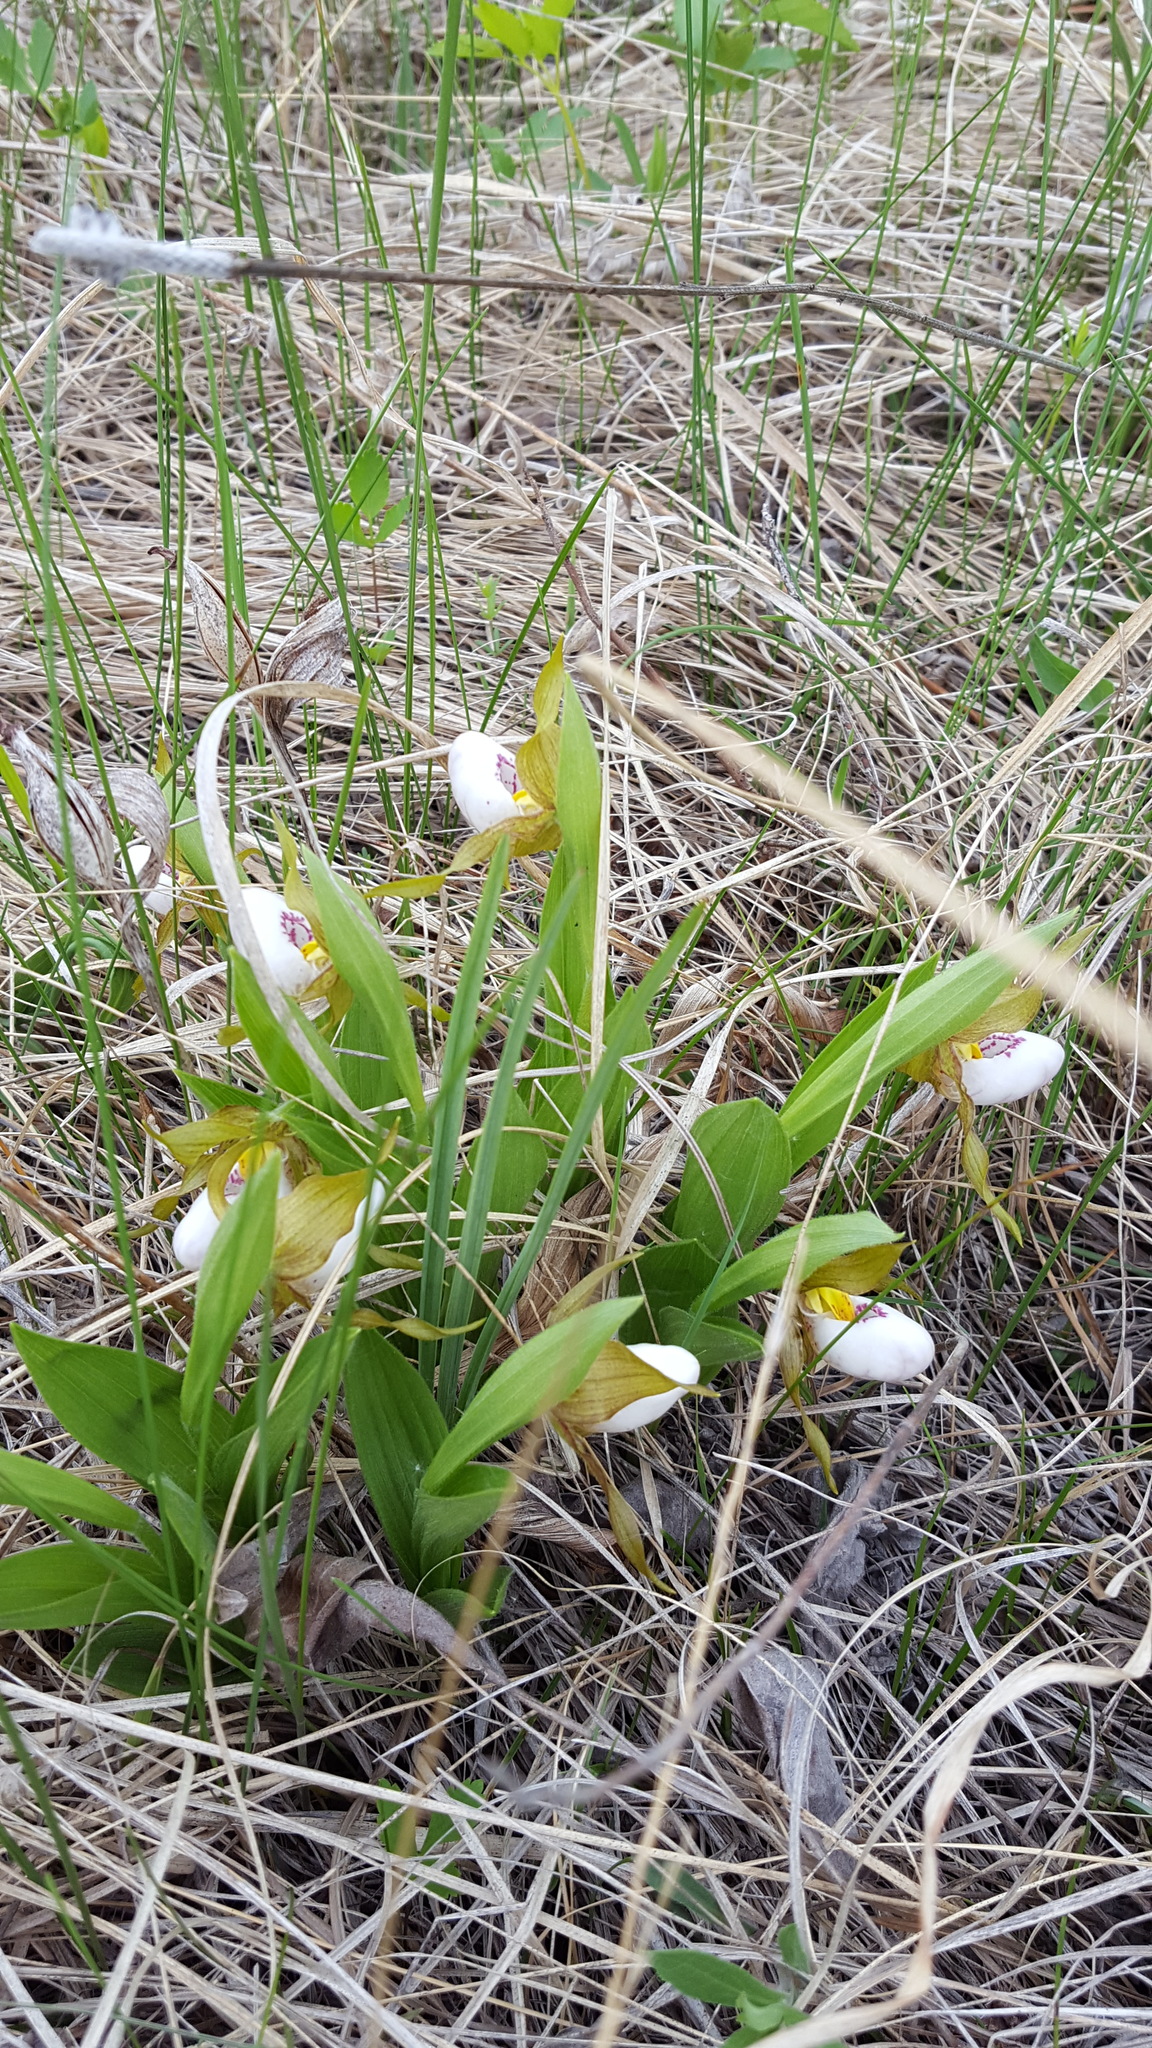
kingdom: Plantae
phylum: Tracheophyta
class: Liliopsida
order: Asparagales
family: Orchidaceae
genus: Cypripedium
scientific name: Cypripedium candidum
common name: White lady's-slipper
